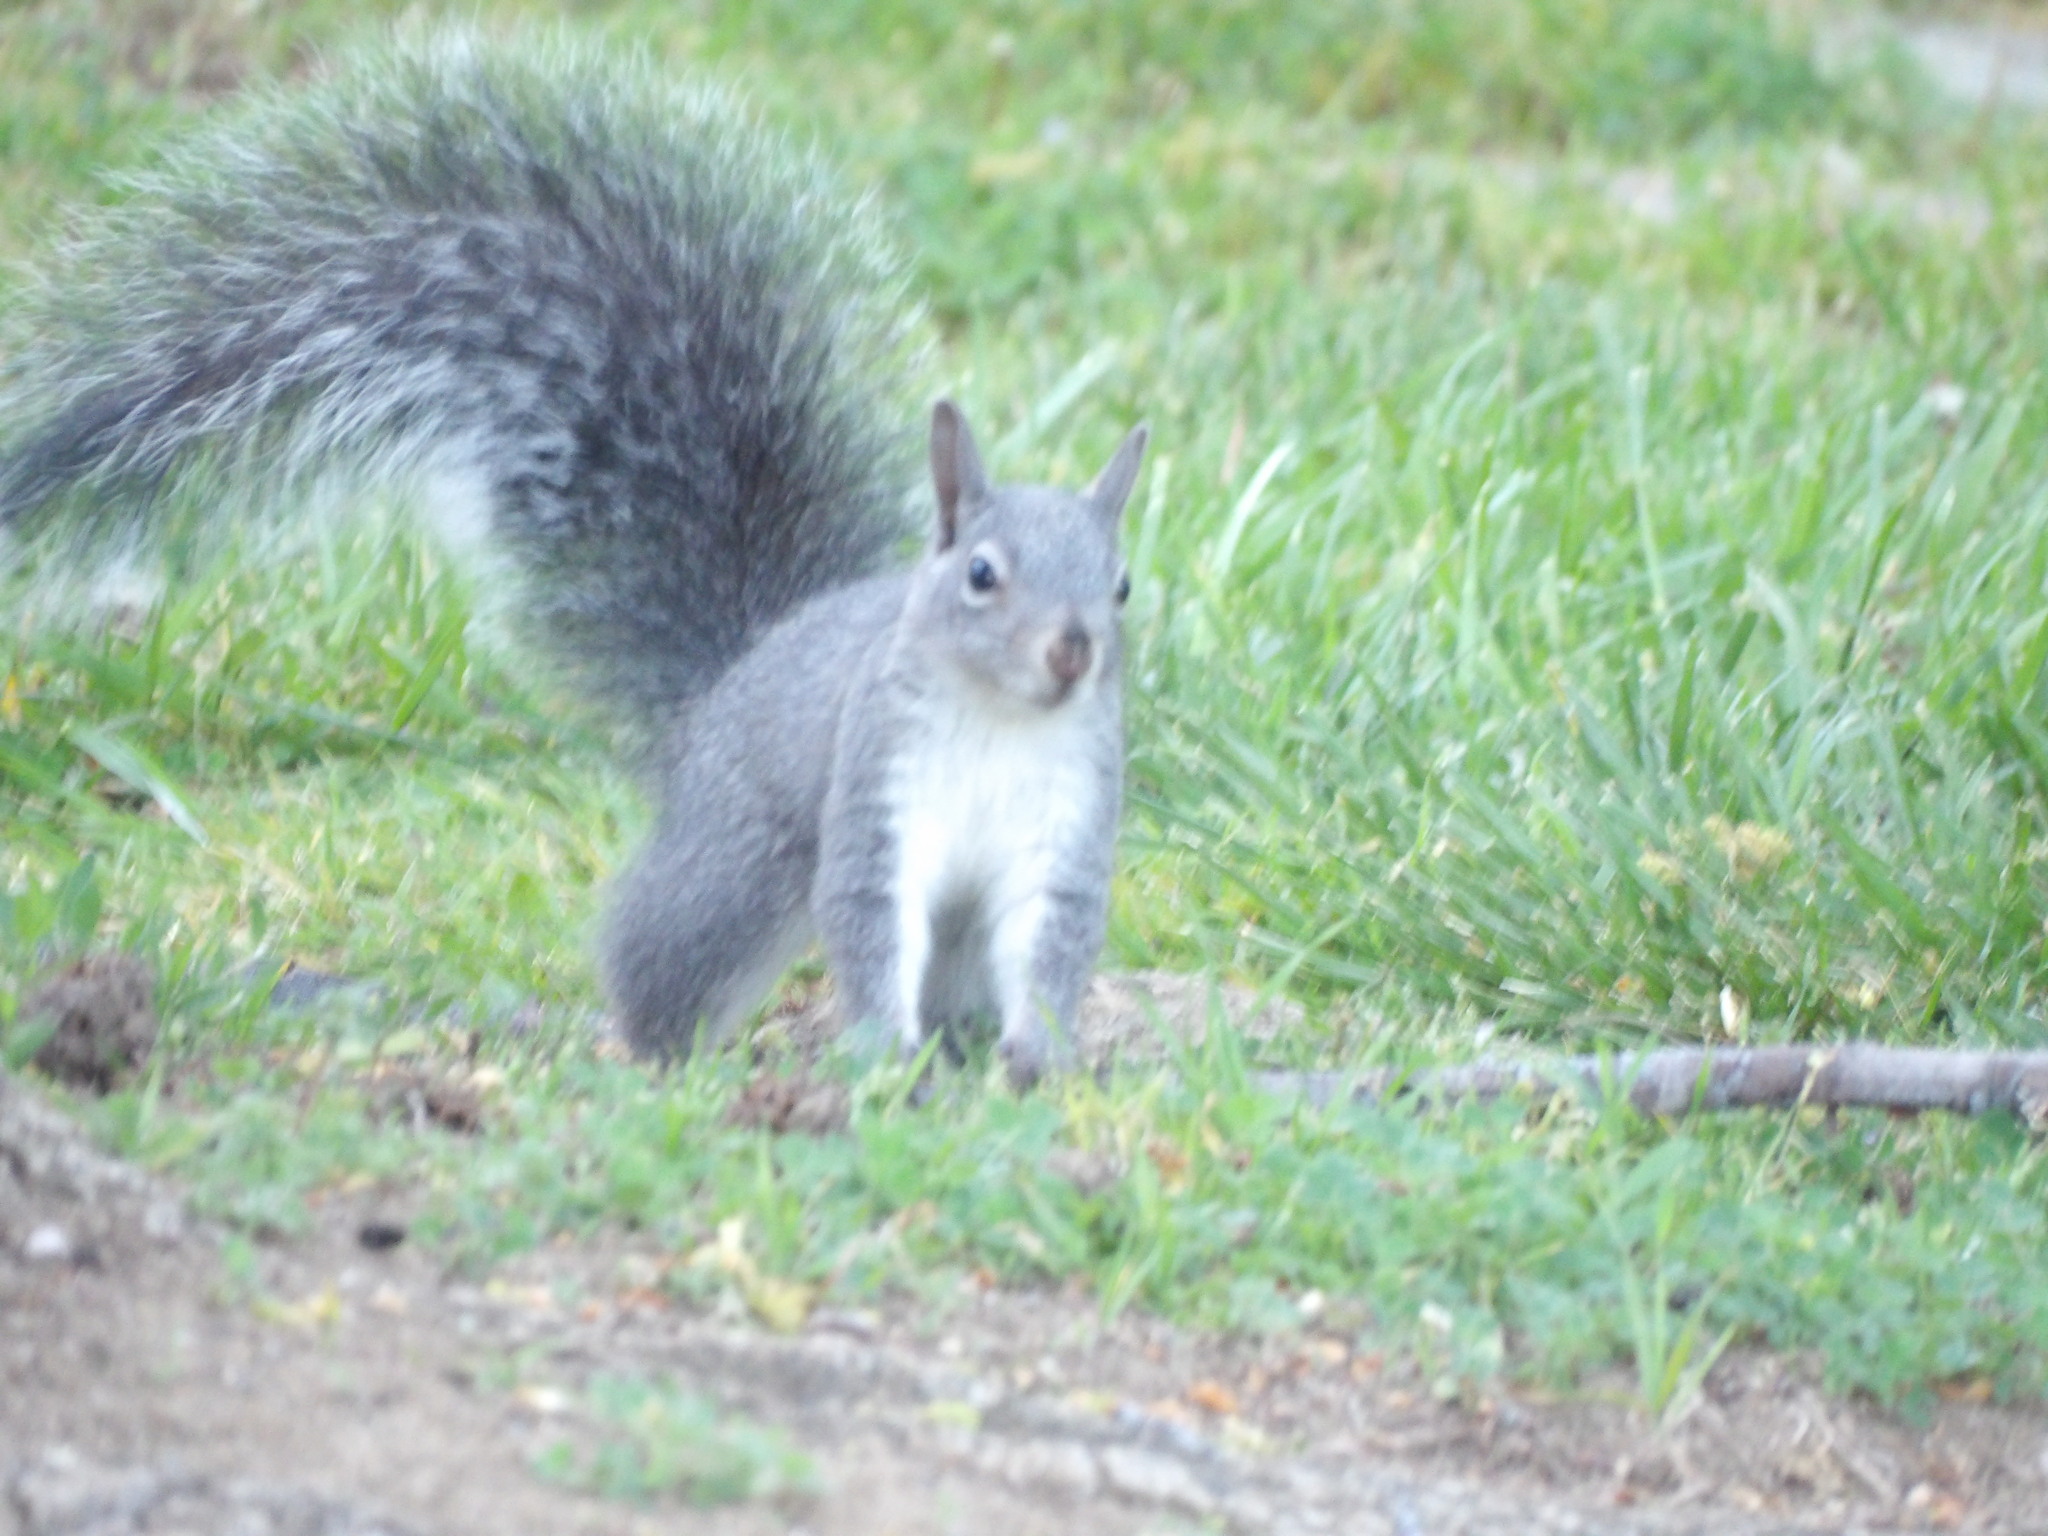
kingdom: Animalia
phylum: Chordata
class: Mammalia
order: Rodentia
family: Sciuridae
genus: Sciurus
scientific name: Sciurus griseus
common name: Western gray squirrel
